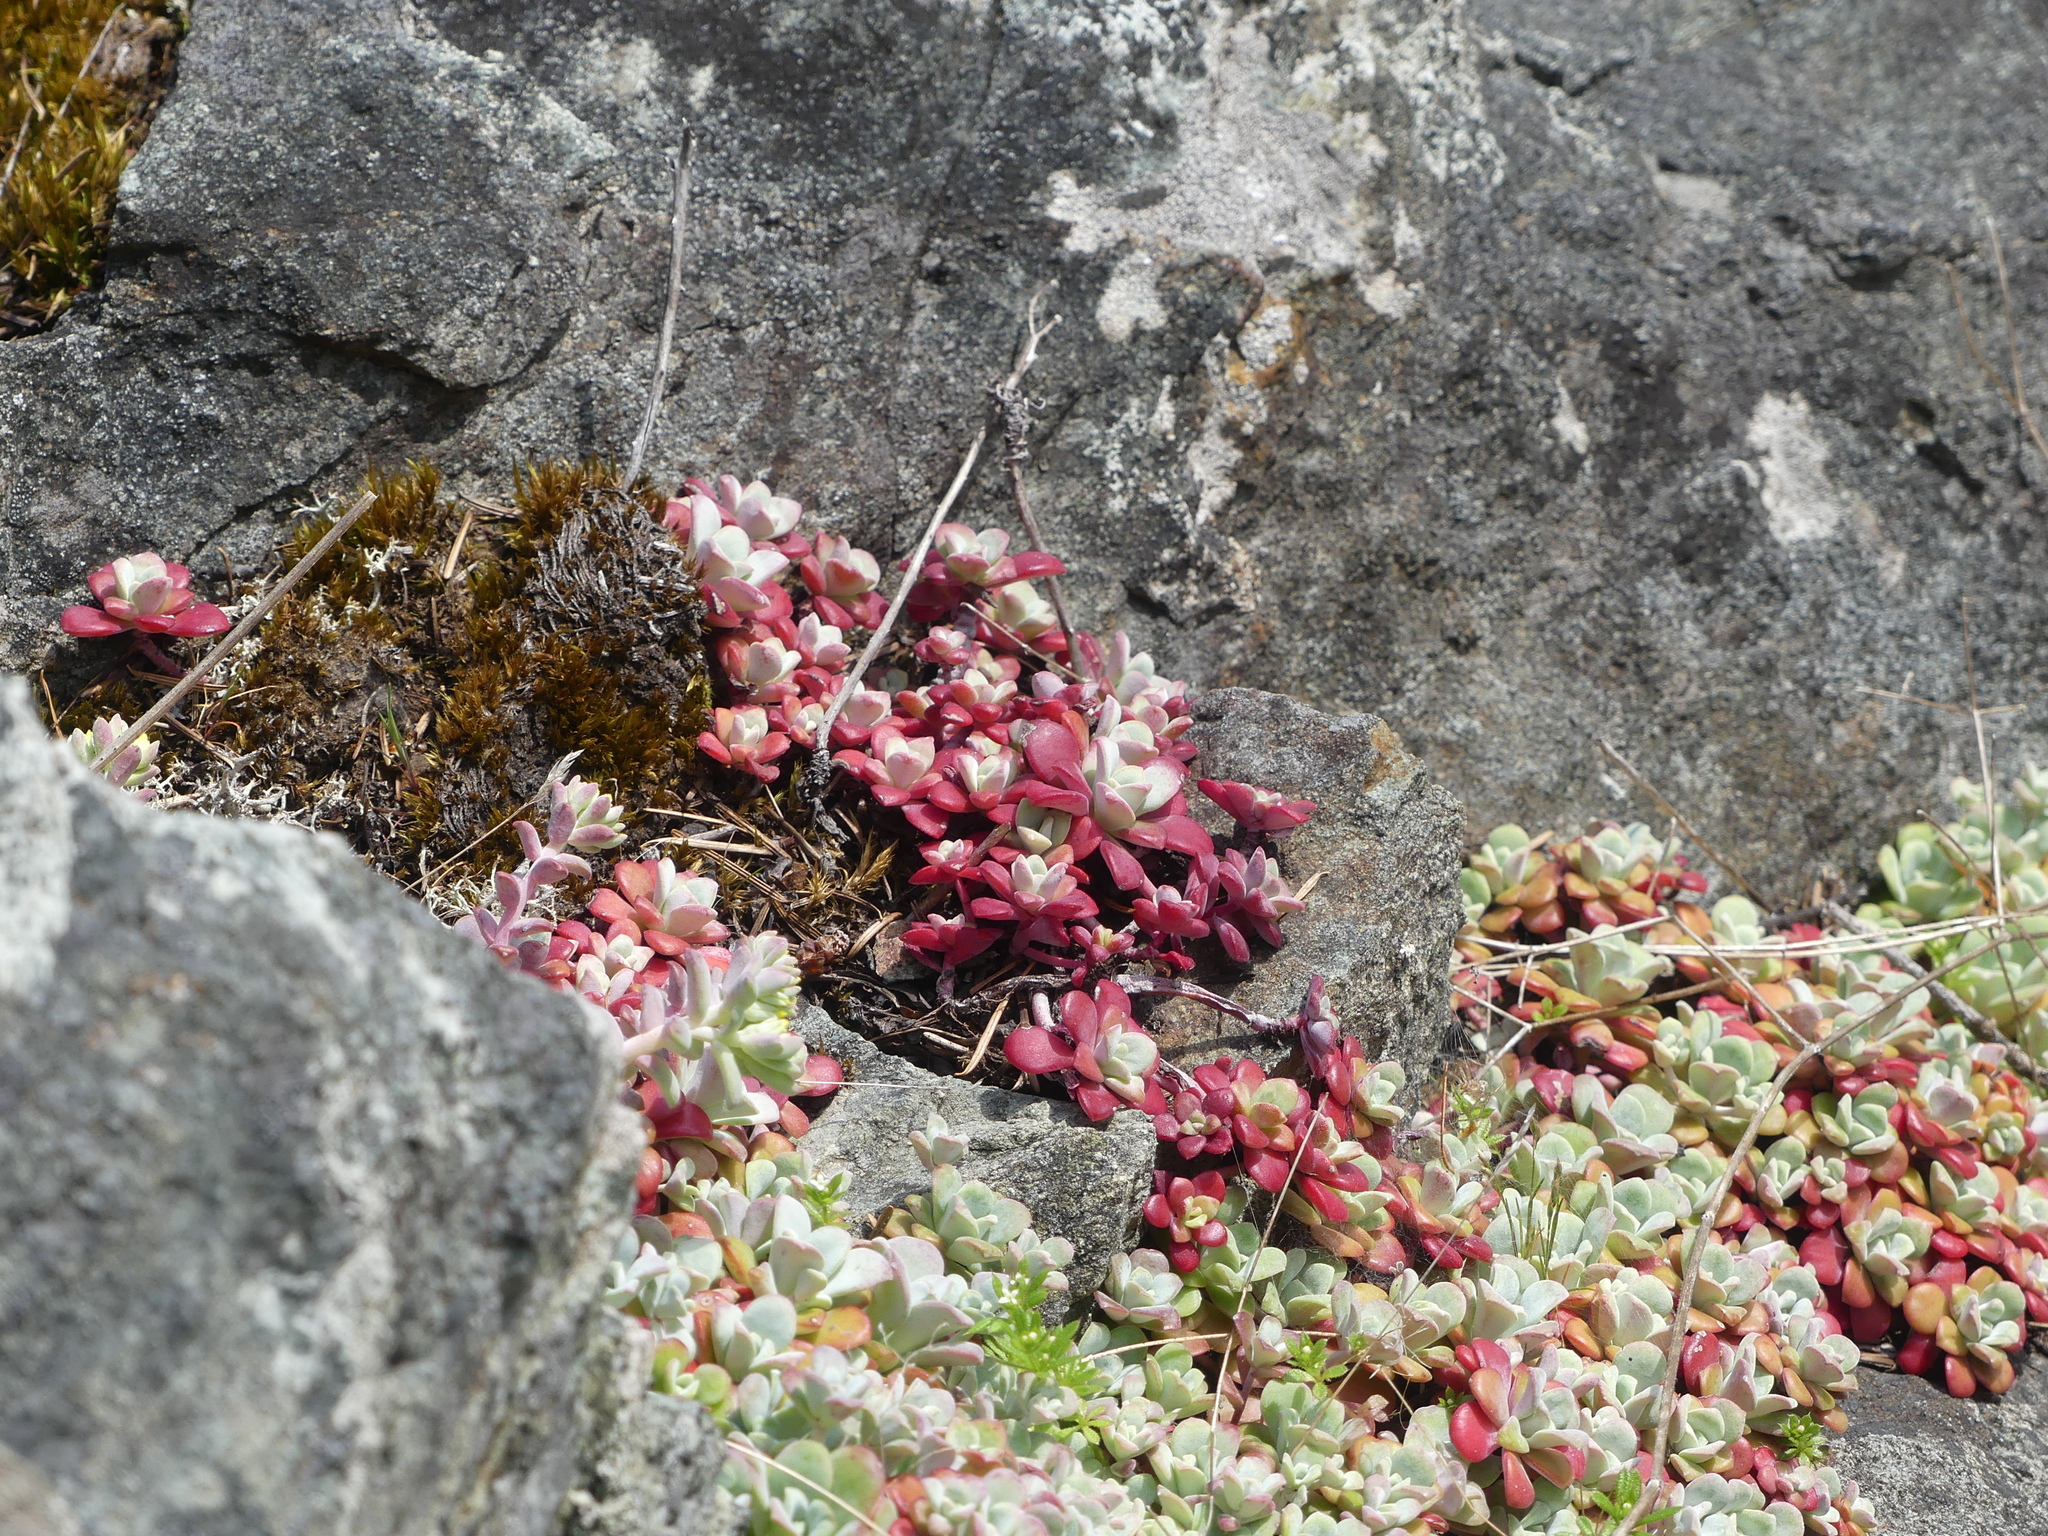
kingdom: Plantae
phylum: Tracheophyta
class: Magnoliopsida
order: Saxifragales
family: Crassulaceae
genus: Sedum
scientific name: Sedum spathulifolium
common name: Colorado stonecrop
